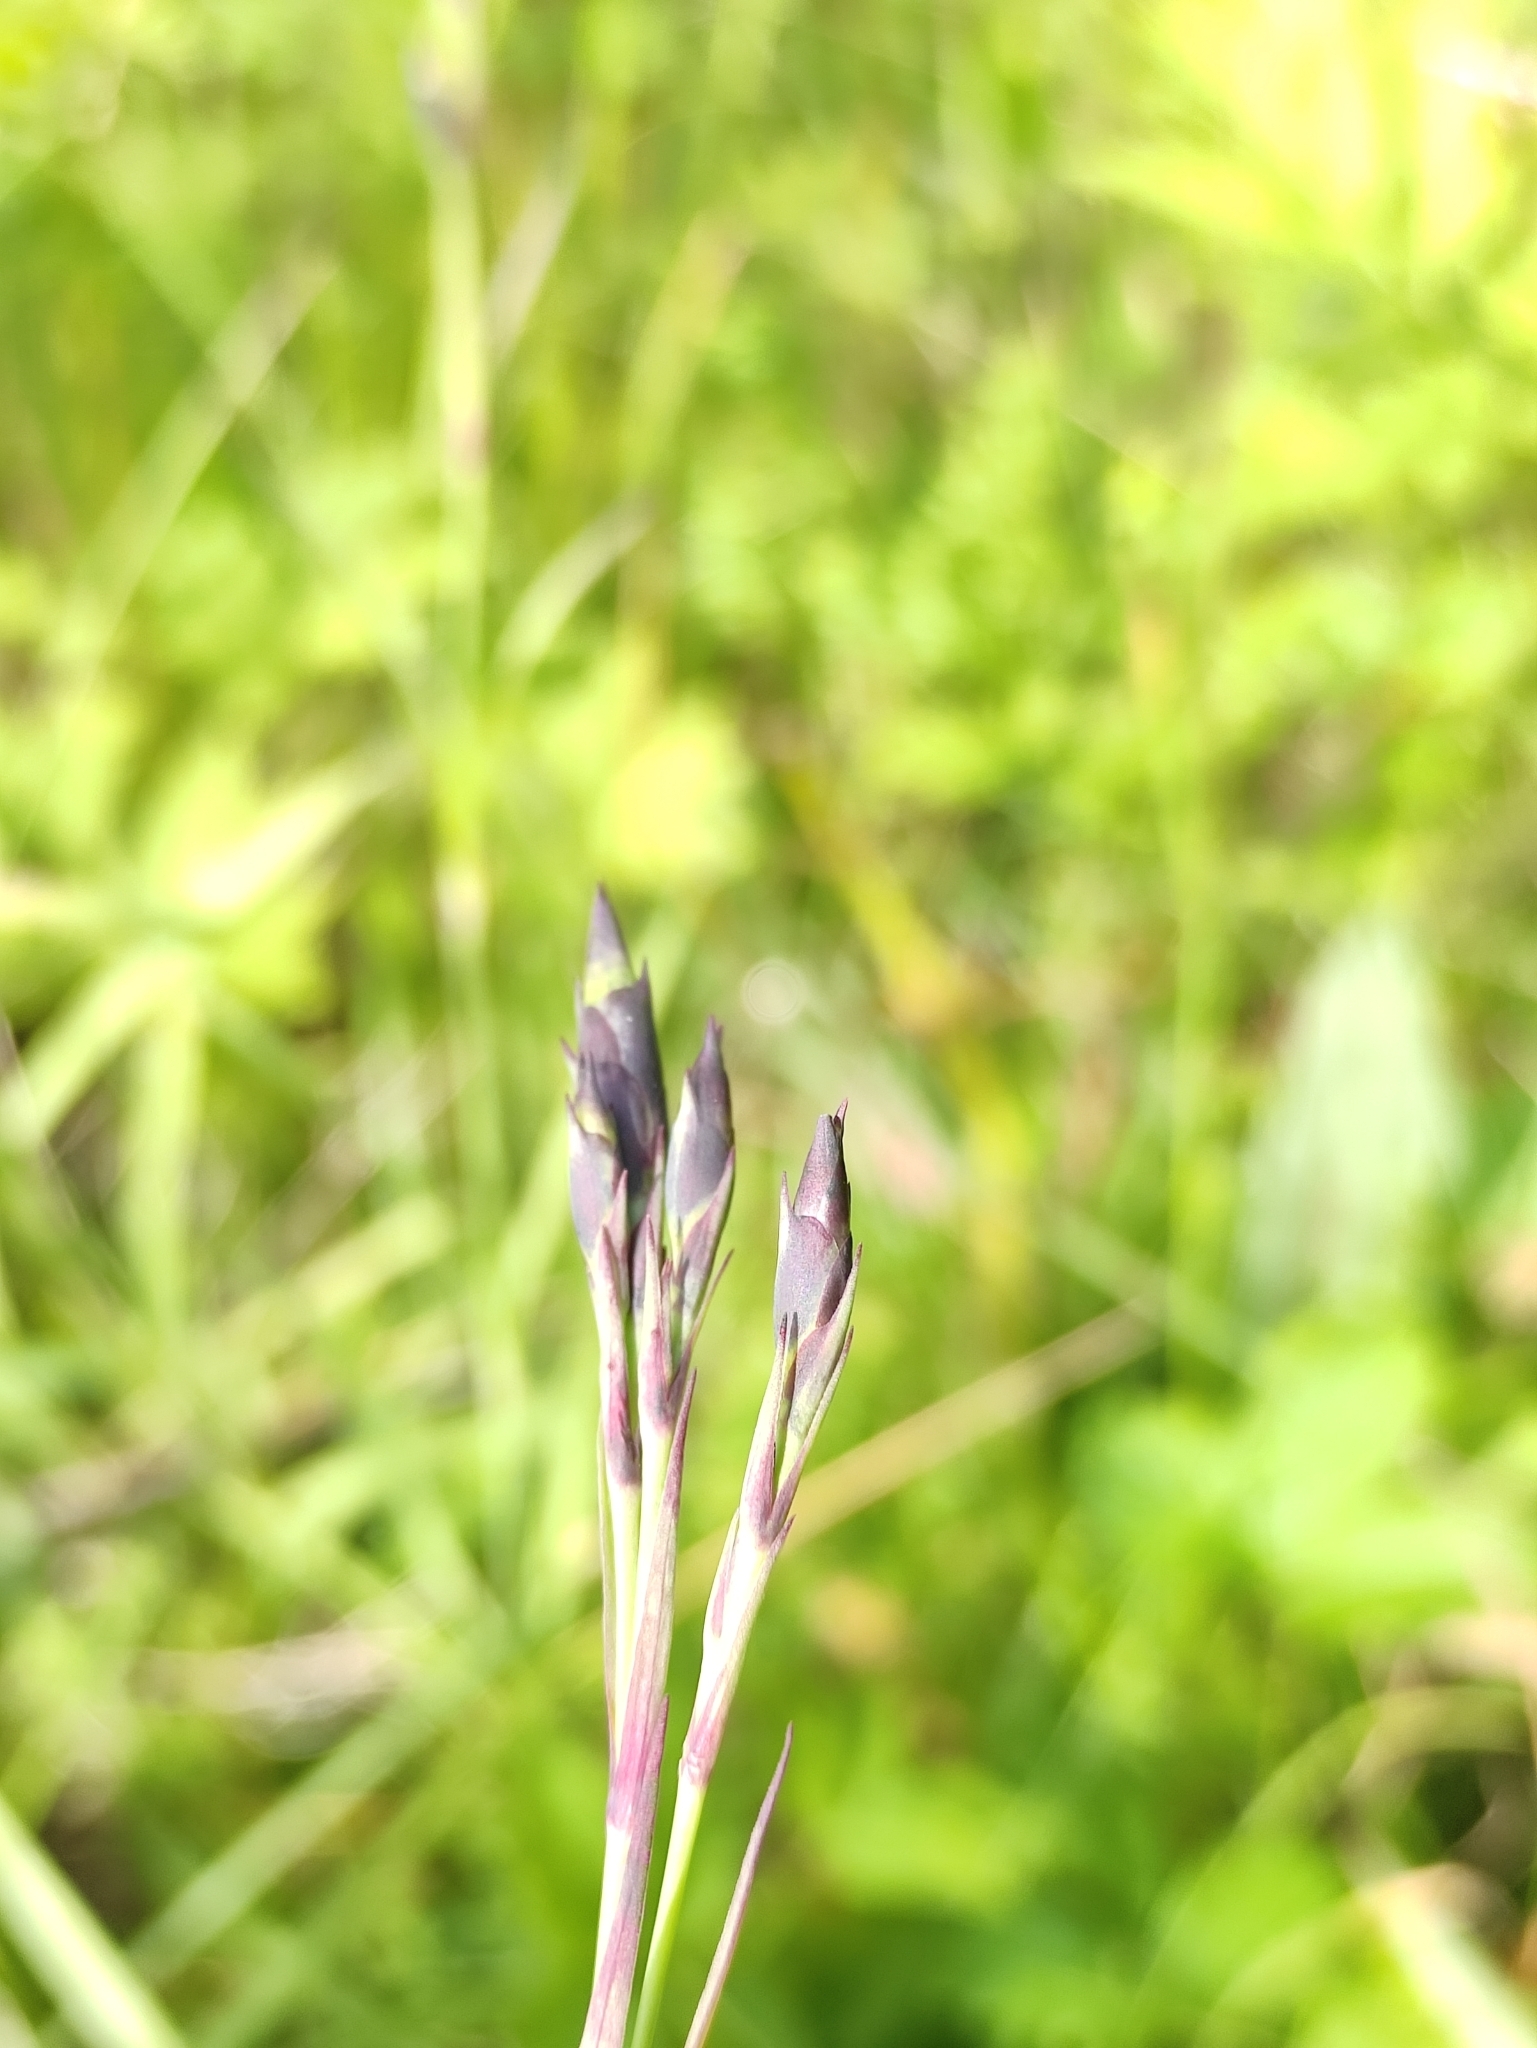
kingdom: Plantae
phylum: Tracheophyta
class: Magnoliopsida
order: Caryophyllales
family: Caryophyllaceae
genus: Dianthus
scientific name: Dianthus superbus
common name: Fringed pink
